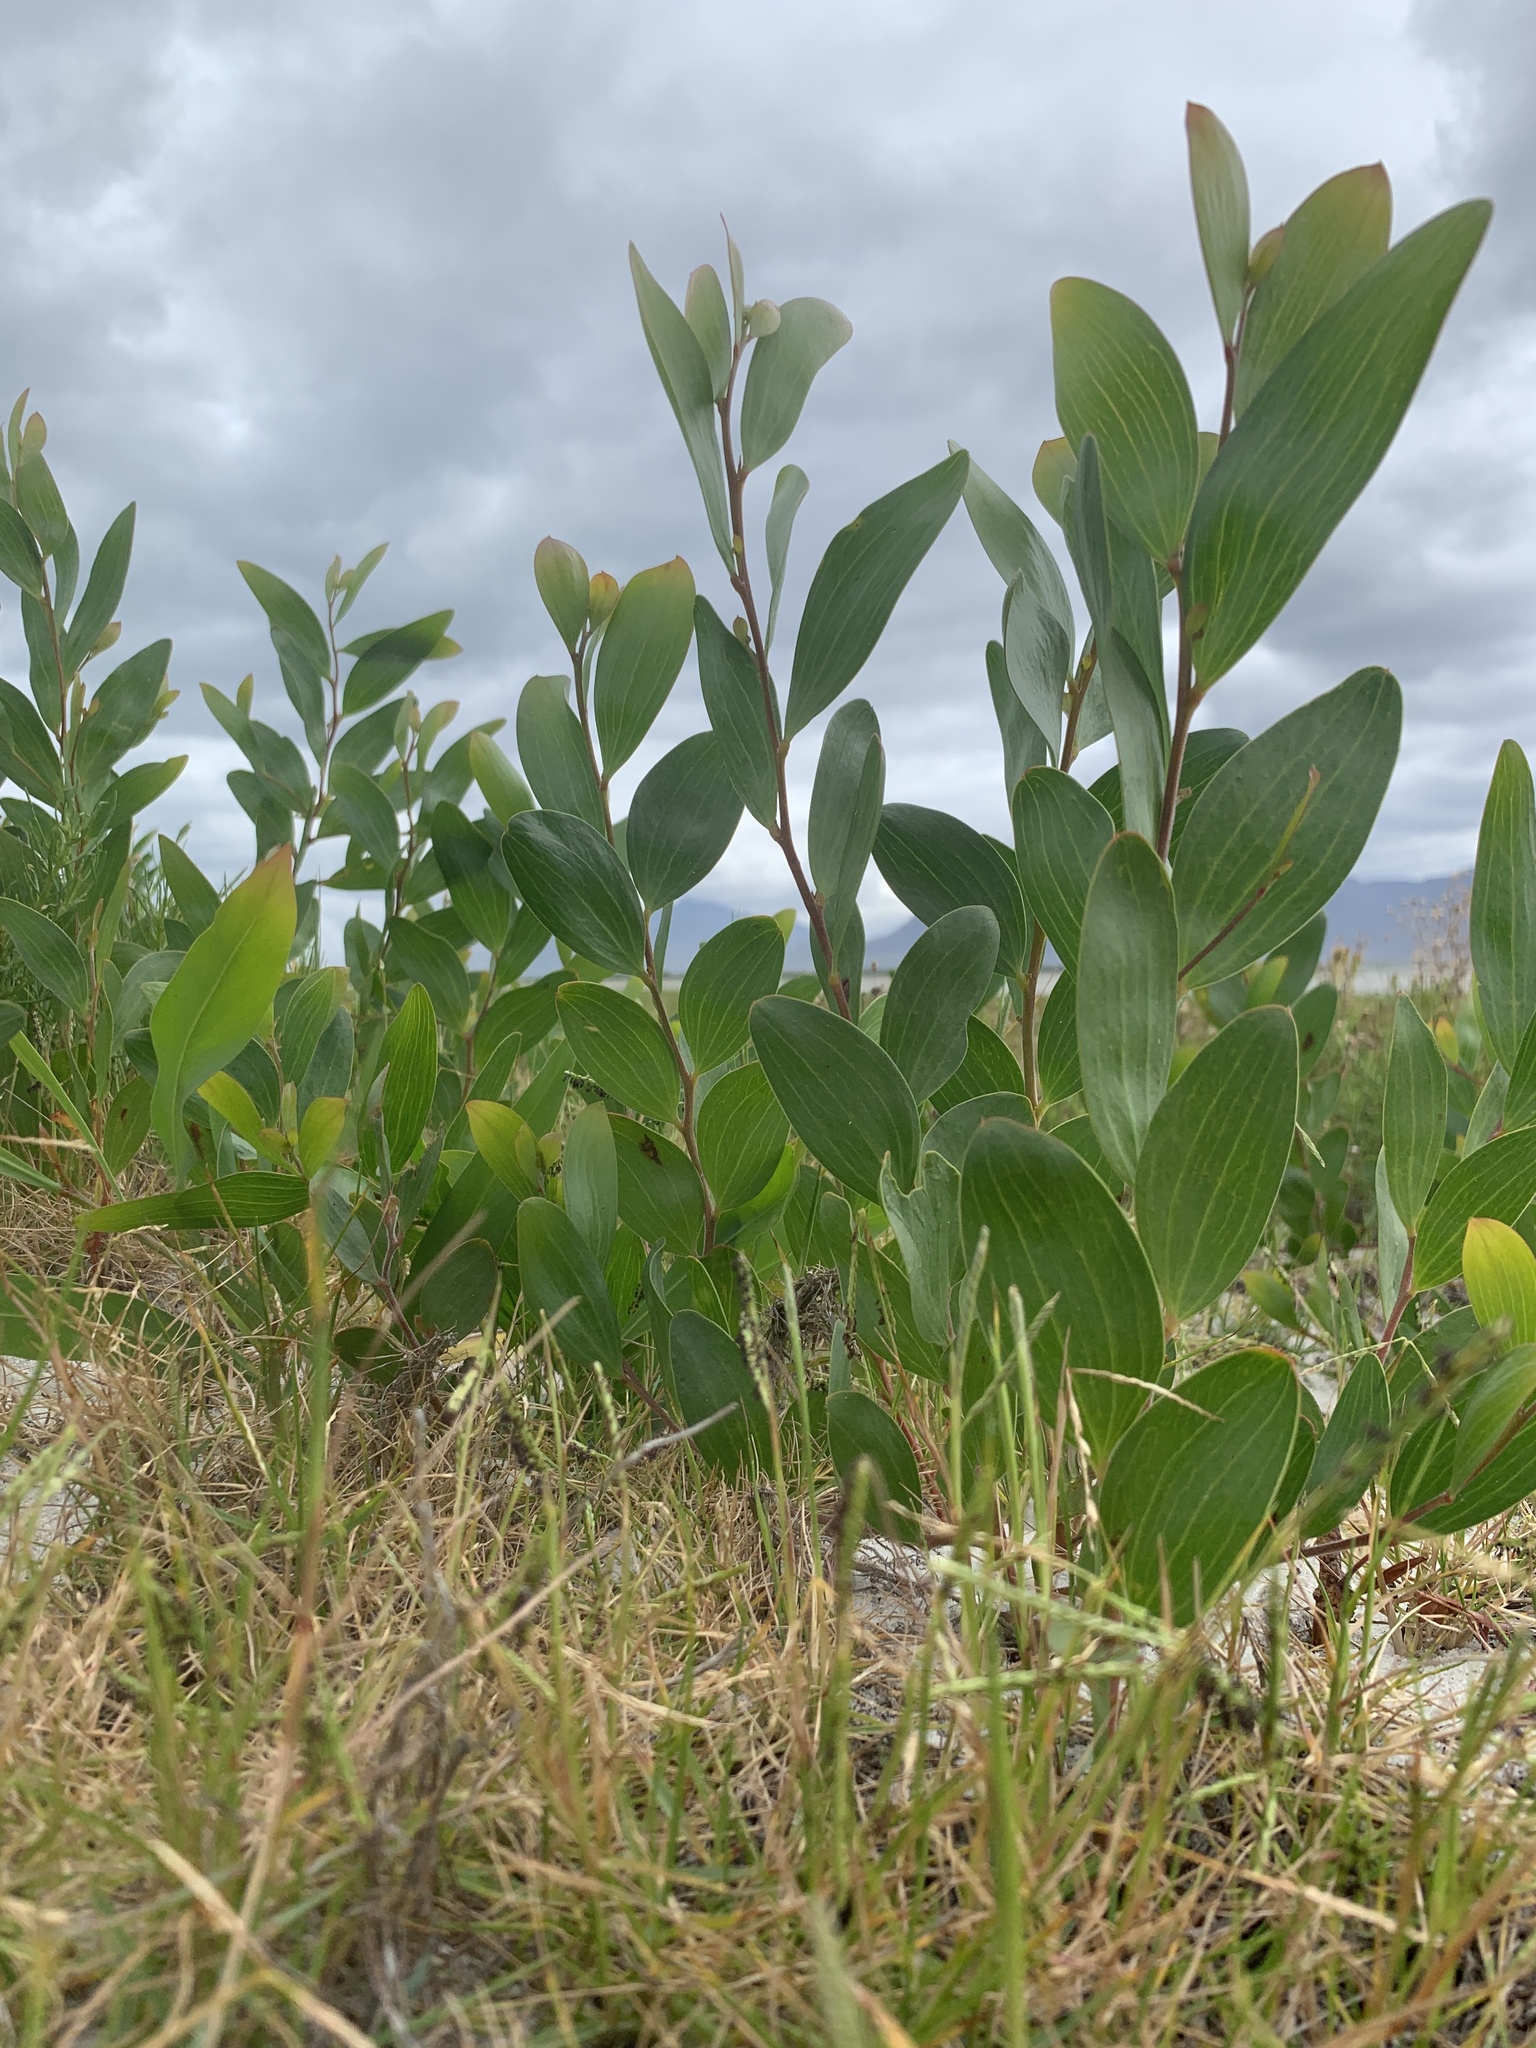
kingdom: Plantae
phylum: Tracheophyta
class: Magnoliopsida
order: Fabales
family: Fabaceae
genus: Acacia
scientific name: Acacia cyclops
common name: Coastal wattle
